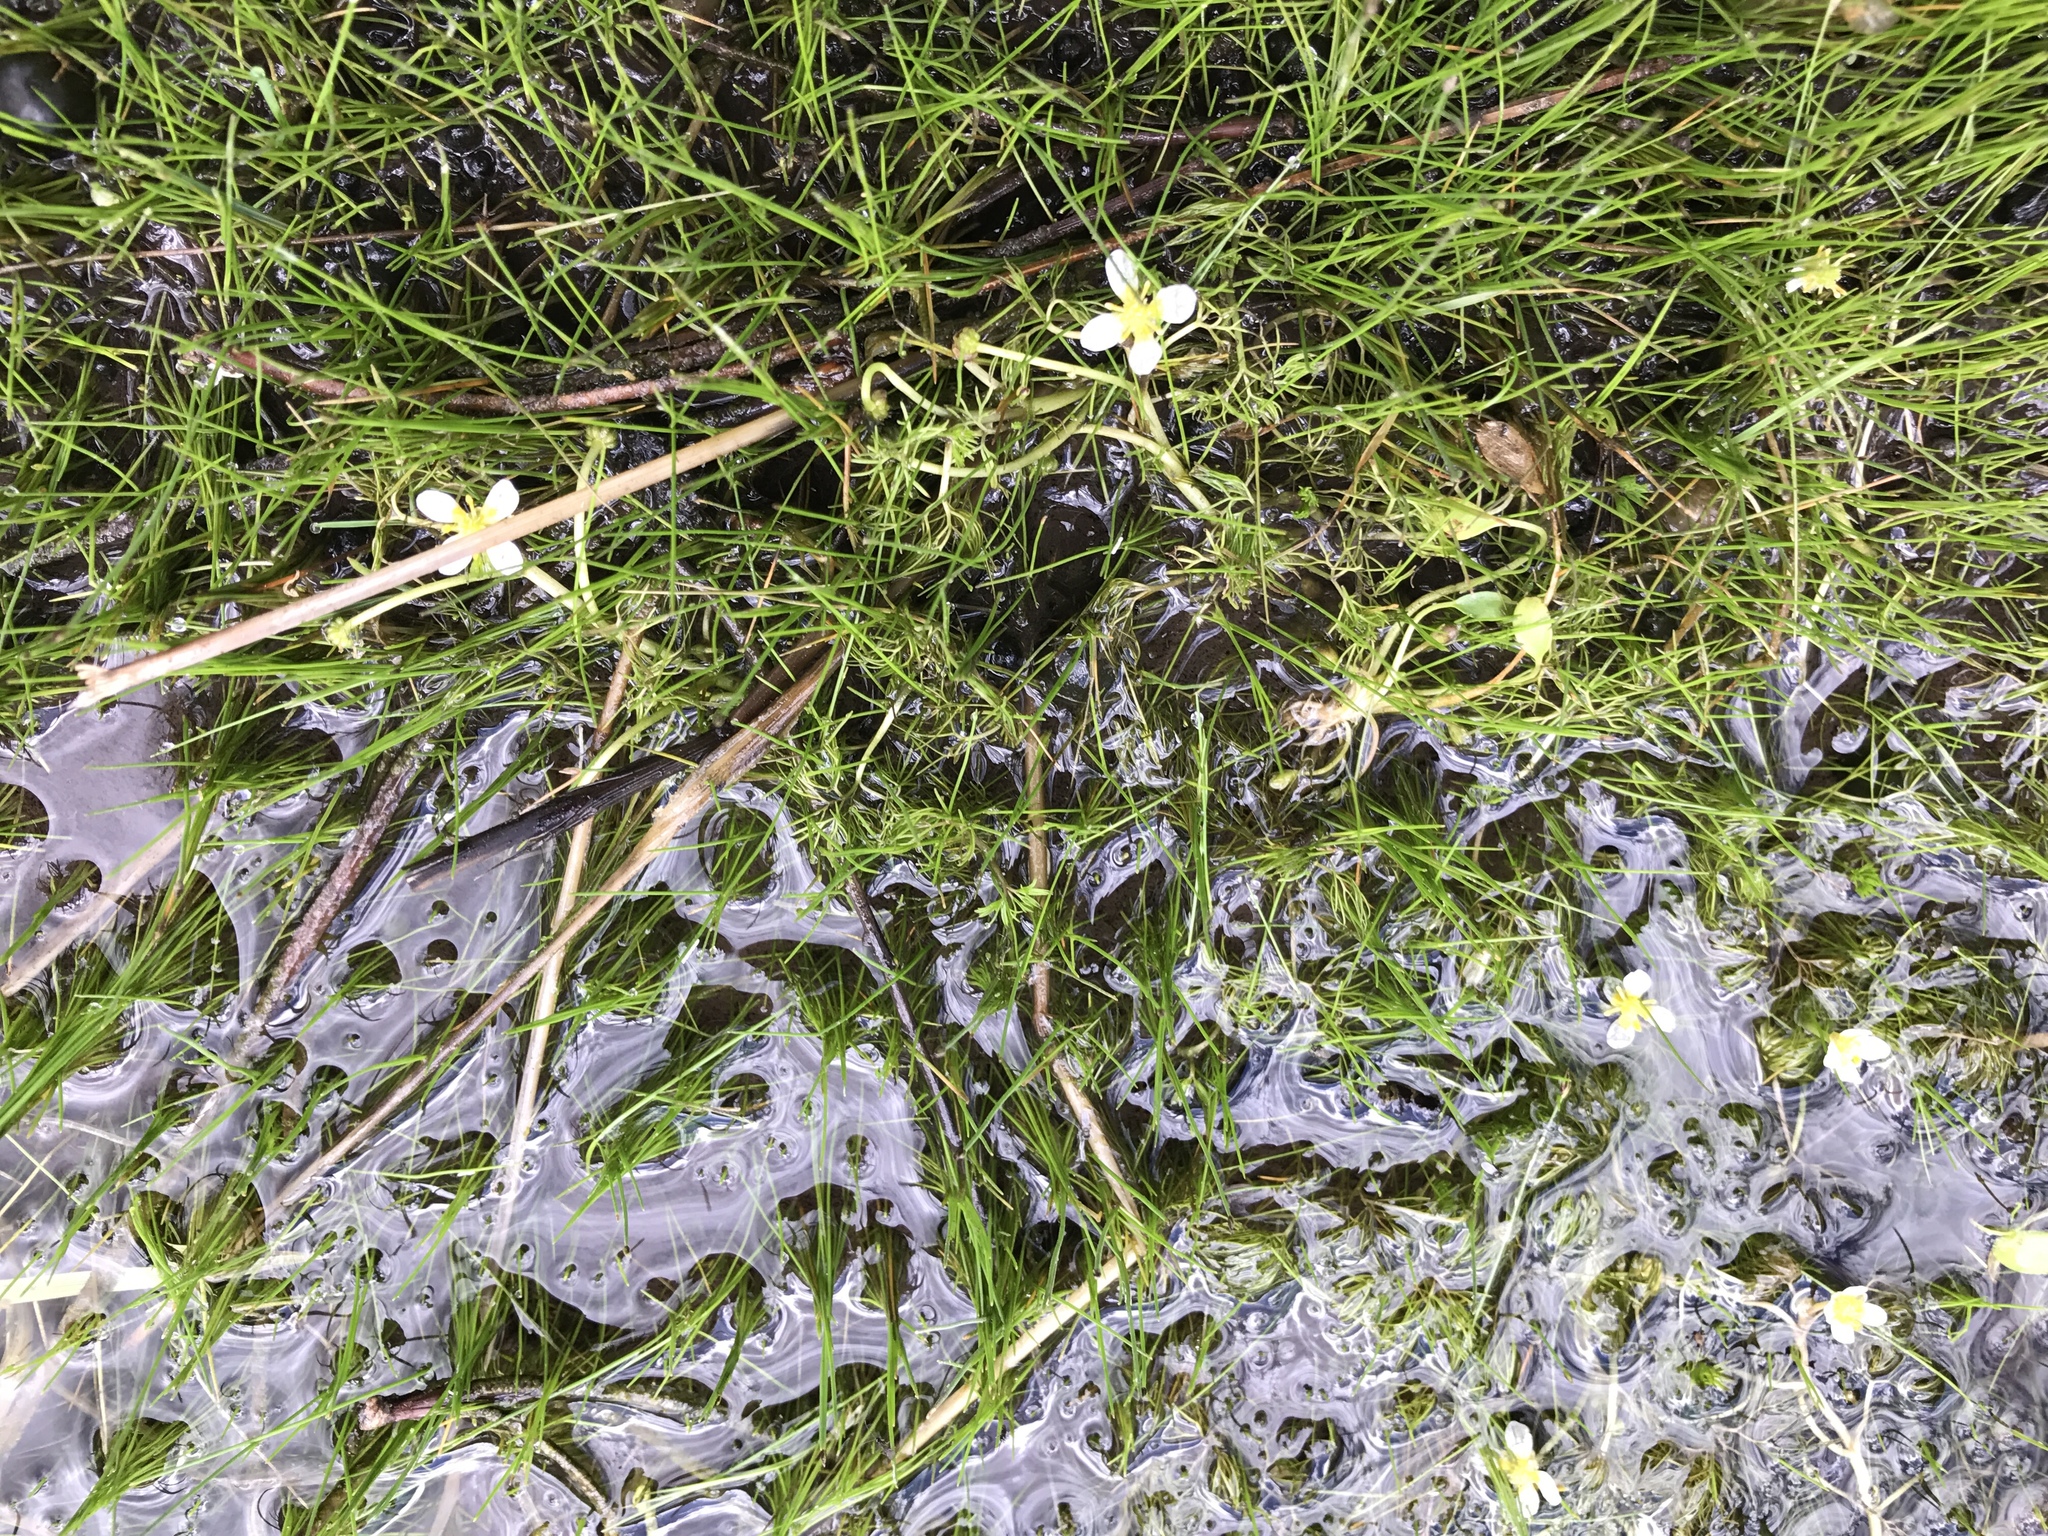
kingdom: Plantae
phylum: Tracheophyta
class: Magnoliopsida
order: Ranunculales
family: Ranunculaceae
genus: Ranunculus
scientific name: Ranunculus aquatilis
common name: Common water-crowfoot
